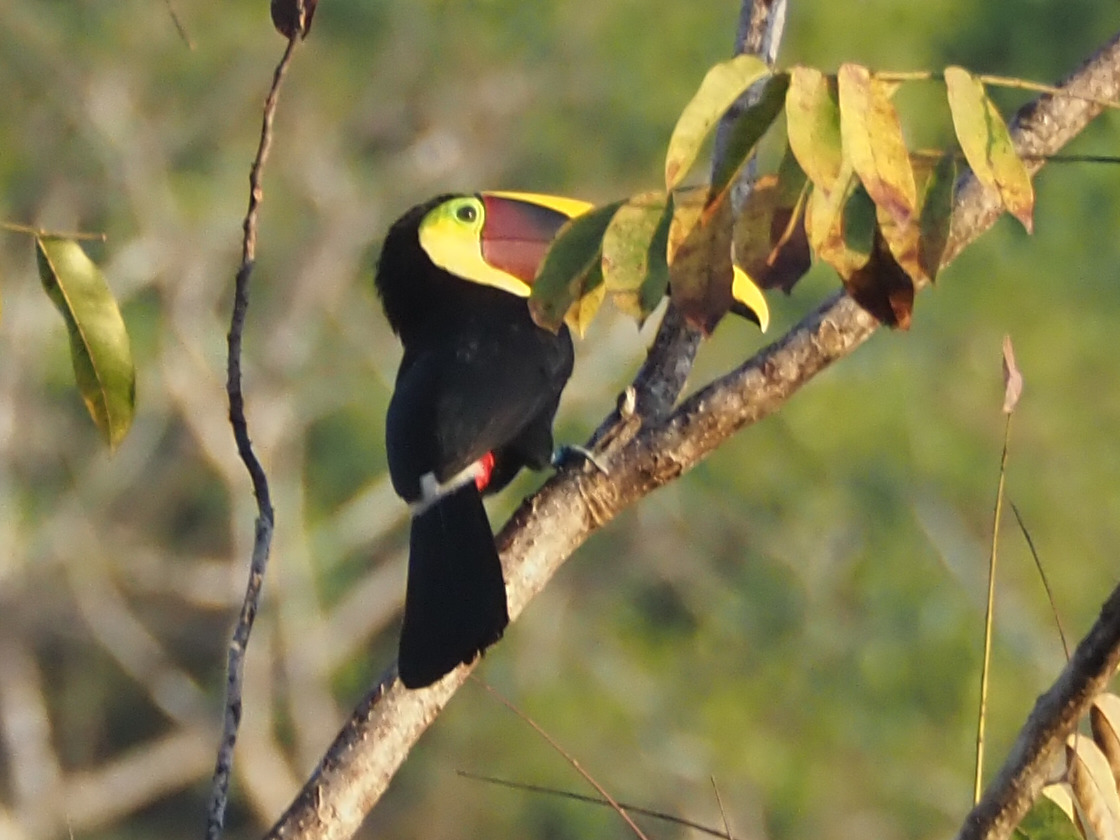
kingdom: Animalia
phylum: Chordata
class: Aves
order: Piciformes
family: Ramphastidae
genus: Ramphastos
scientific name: Ramphastos ambiguus
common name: Yellow-throated toucan
